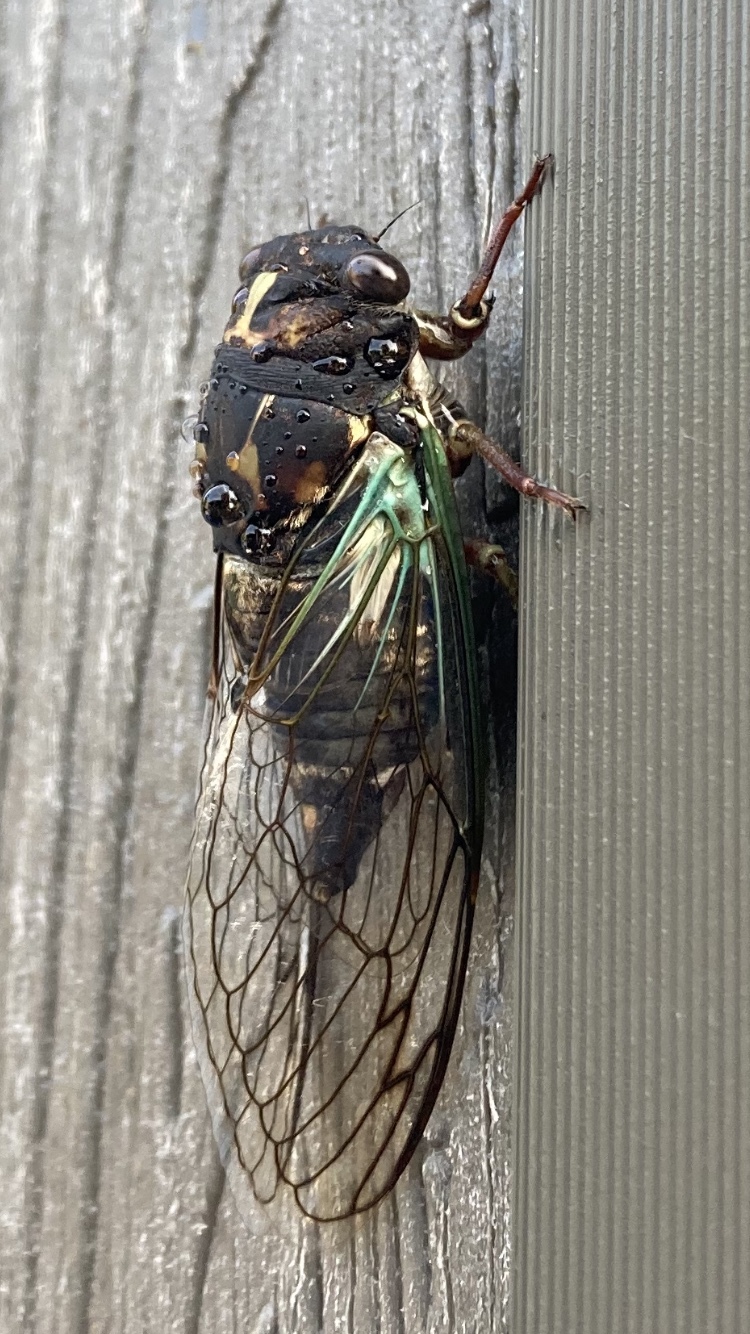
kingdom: Animalia
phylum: Arthropoda
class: Insecta
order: Hemiptera
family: Cicadidae
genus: Neotibicen
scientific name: Neotibicen lyricen
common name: Lyric cicada
